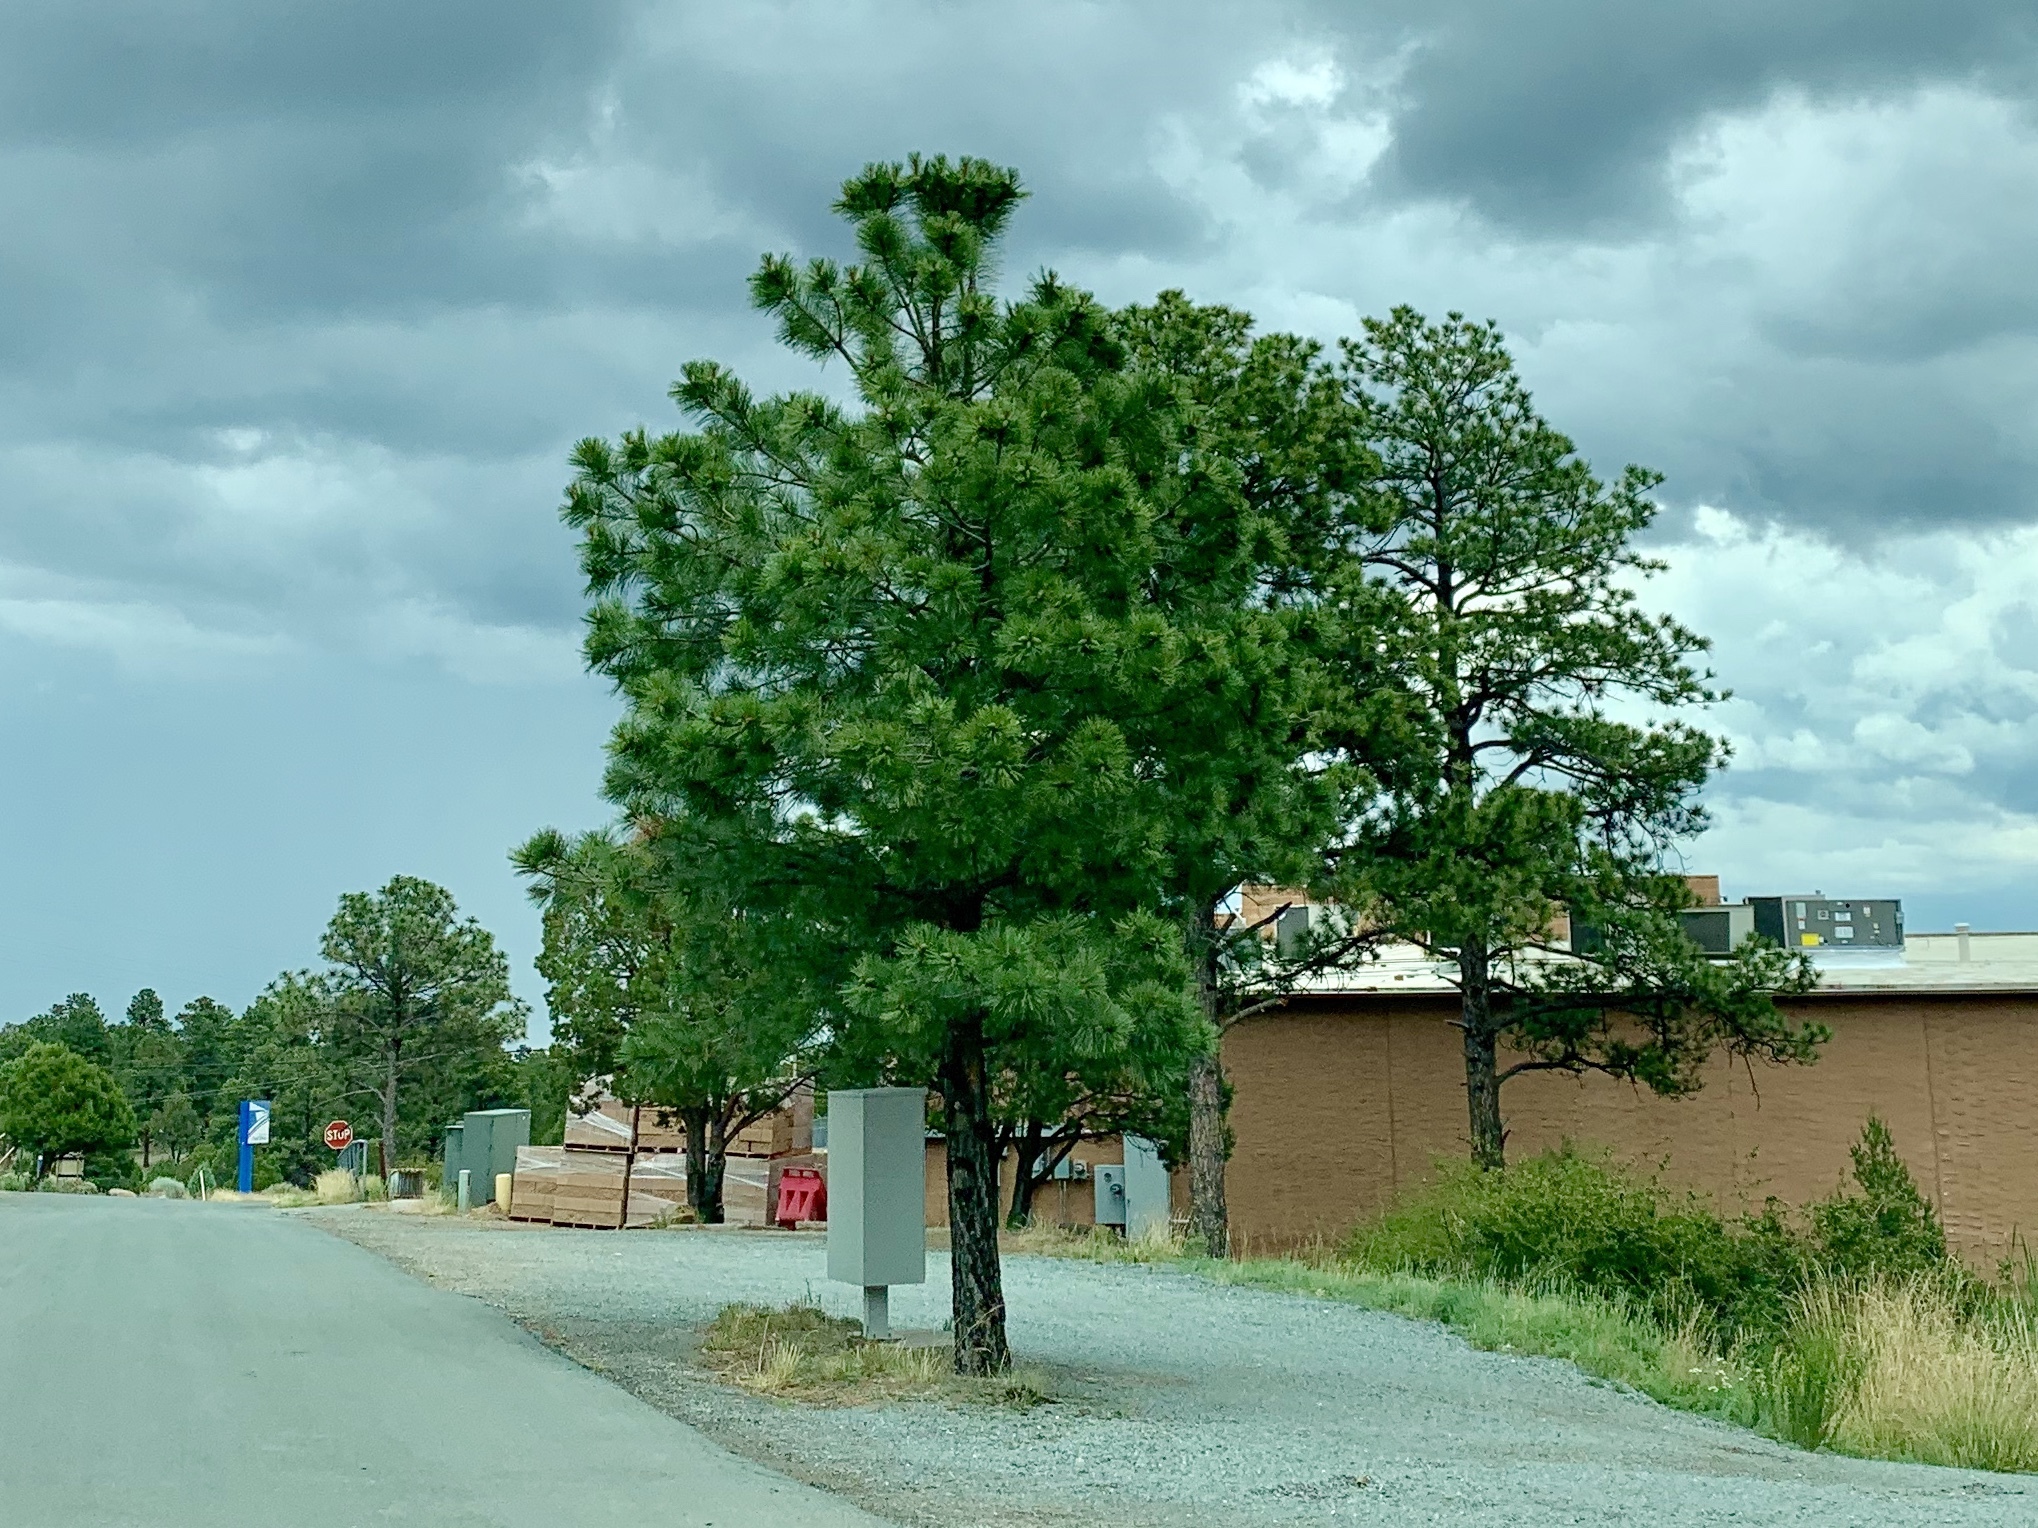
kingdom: Plantae
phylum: Tracheophyta
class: Pinopsida
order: Pinales
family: Pinaceae
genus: Pinus
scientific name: Pinus ponderosa
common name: Western yellow-pine
